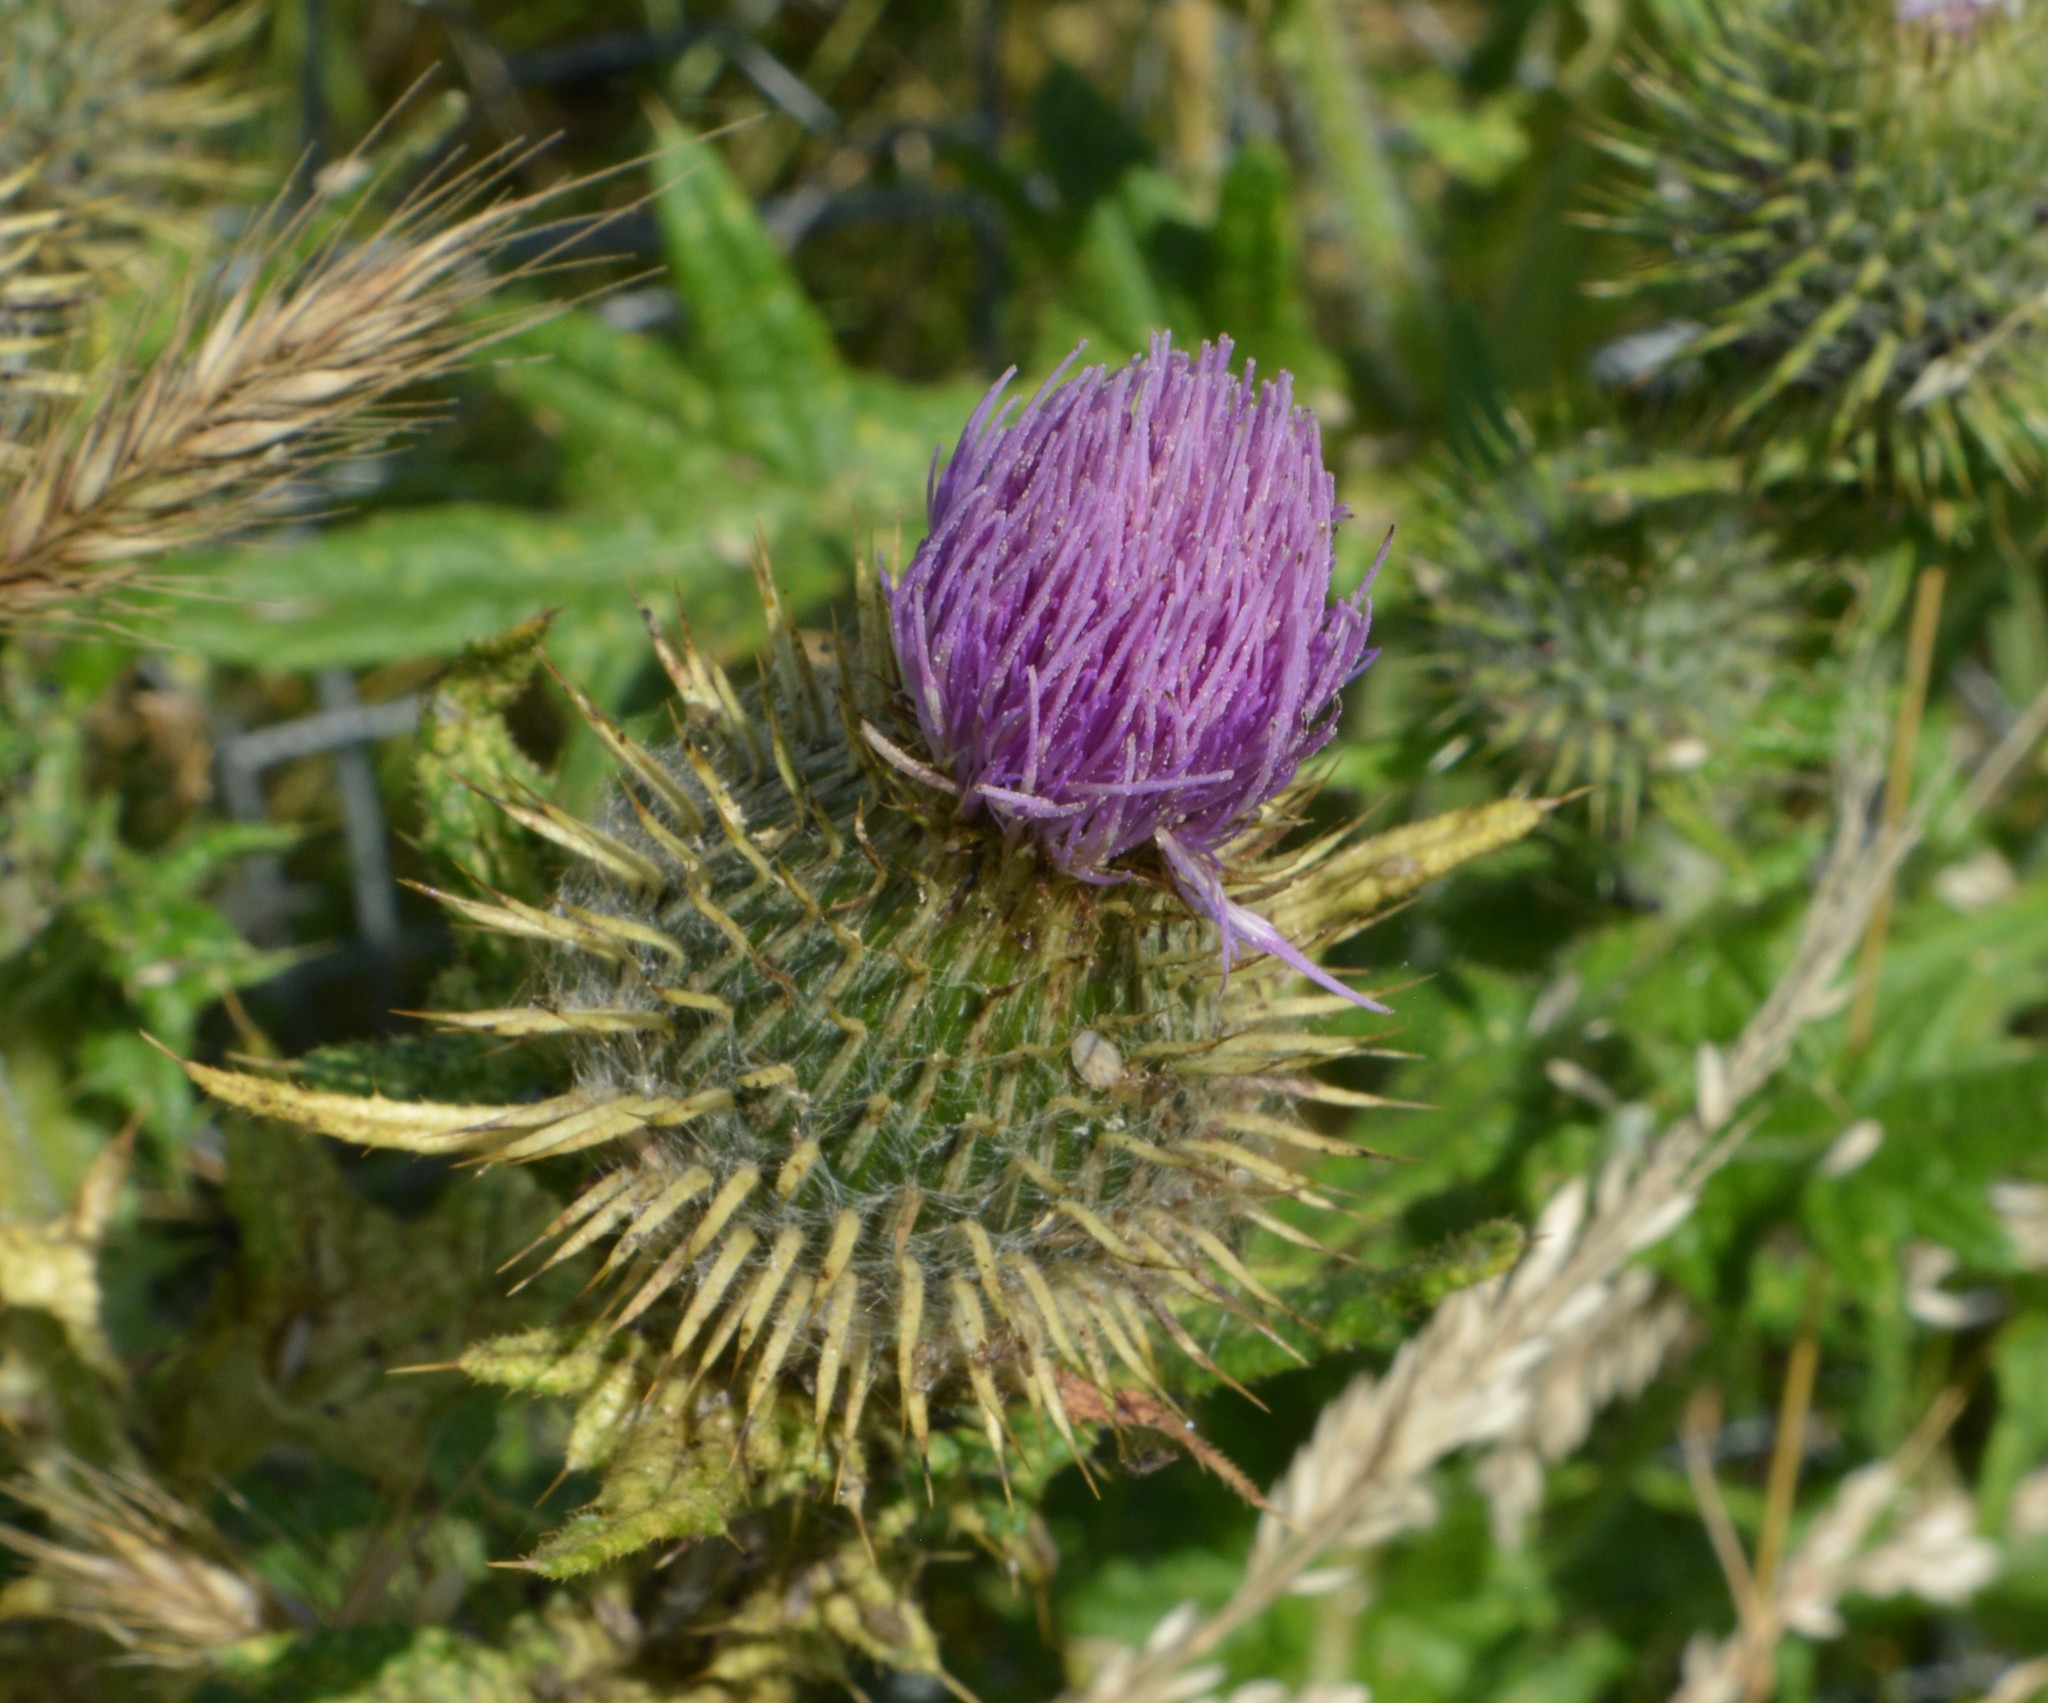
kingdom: Plantae
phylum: Tracheophyta
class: Magnoliopsida
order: Asterales
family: Asteraceae
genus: Cirsium
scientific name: Cirsium vulgare
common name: Bull thistle
